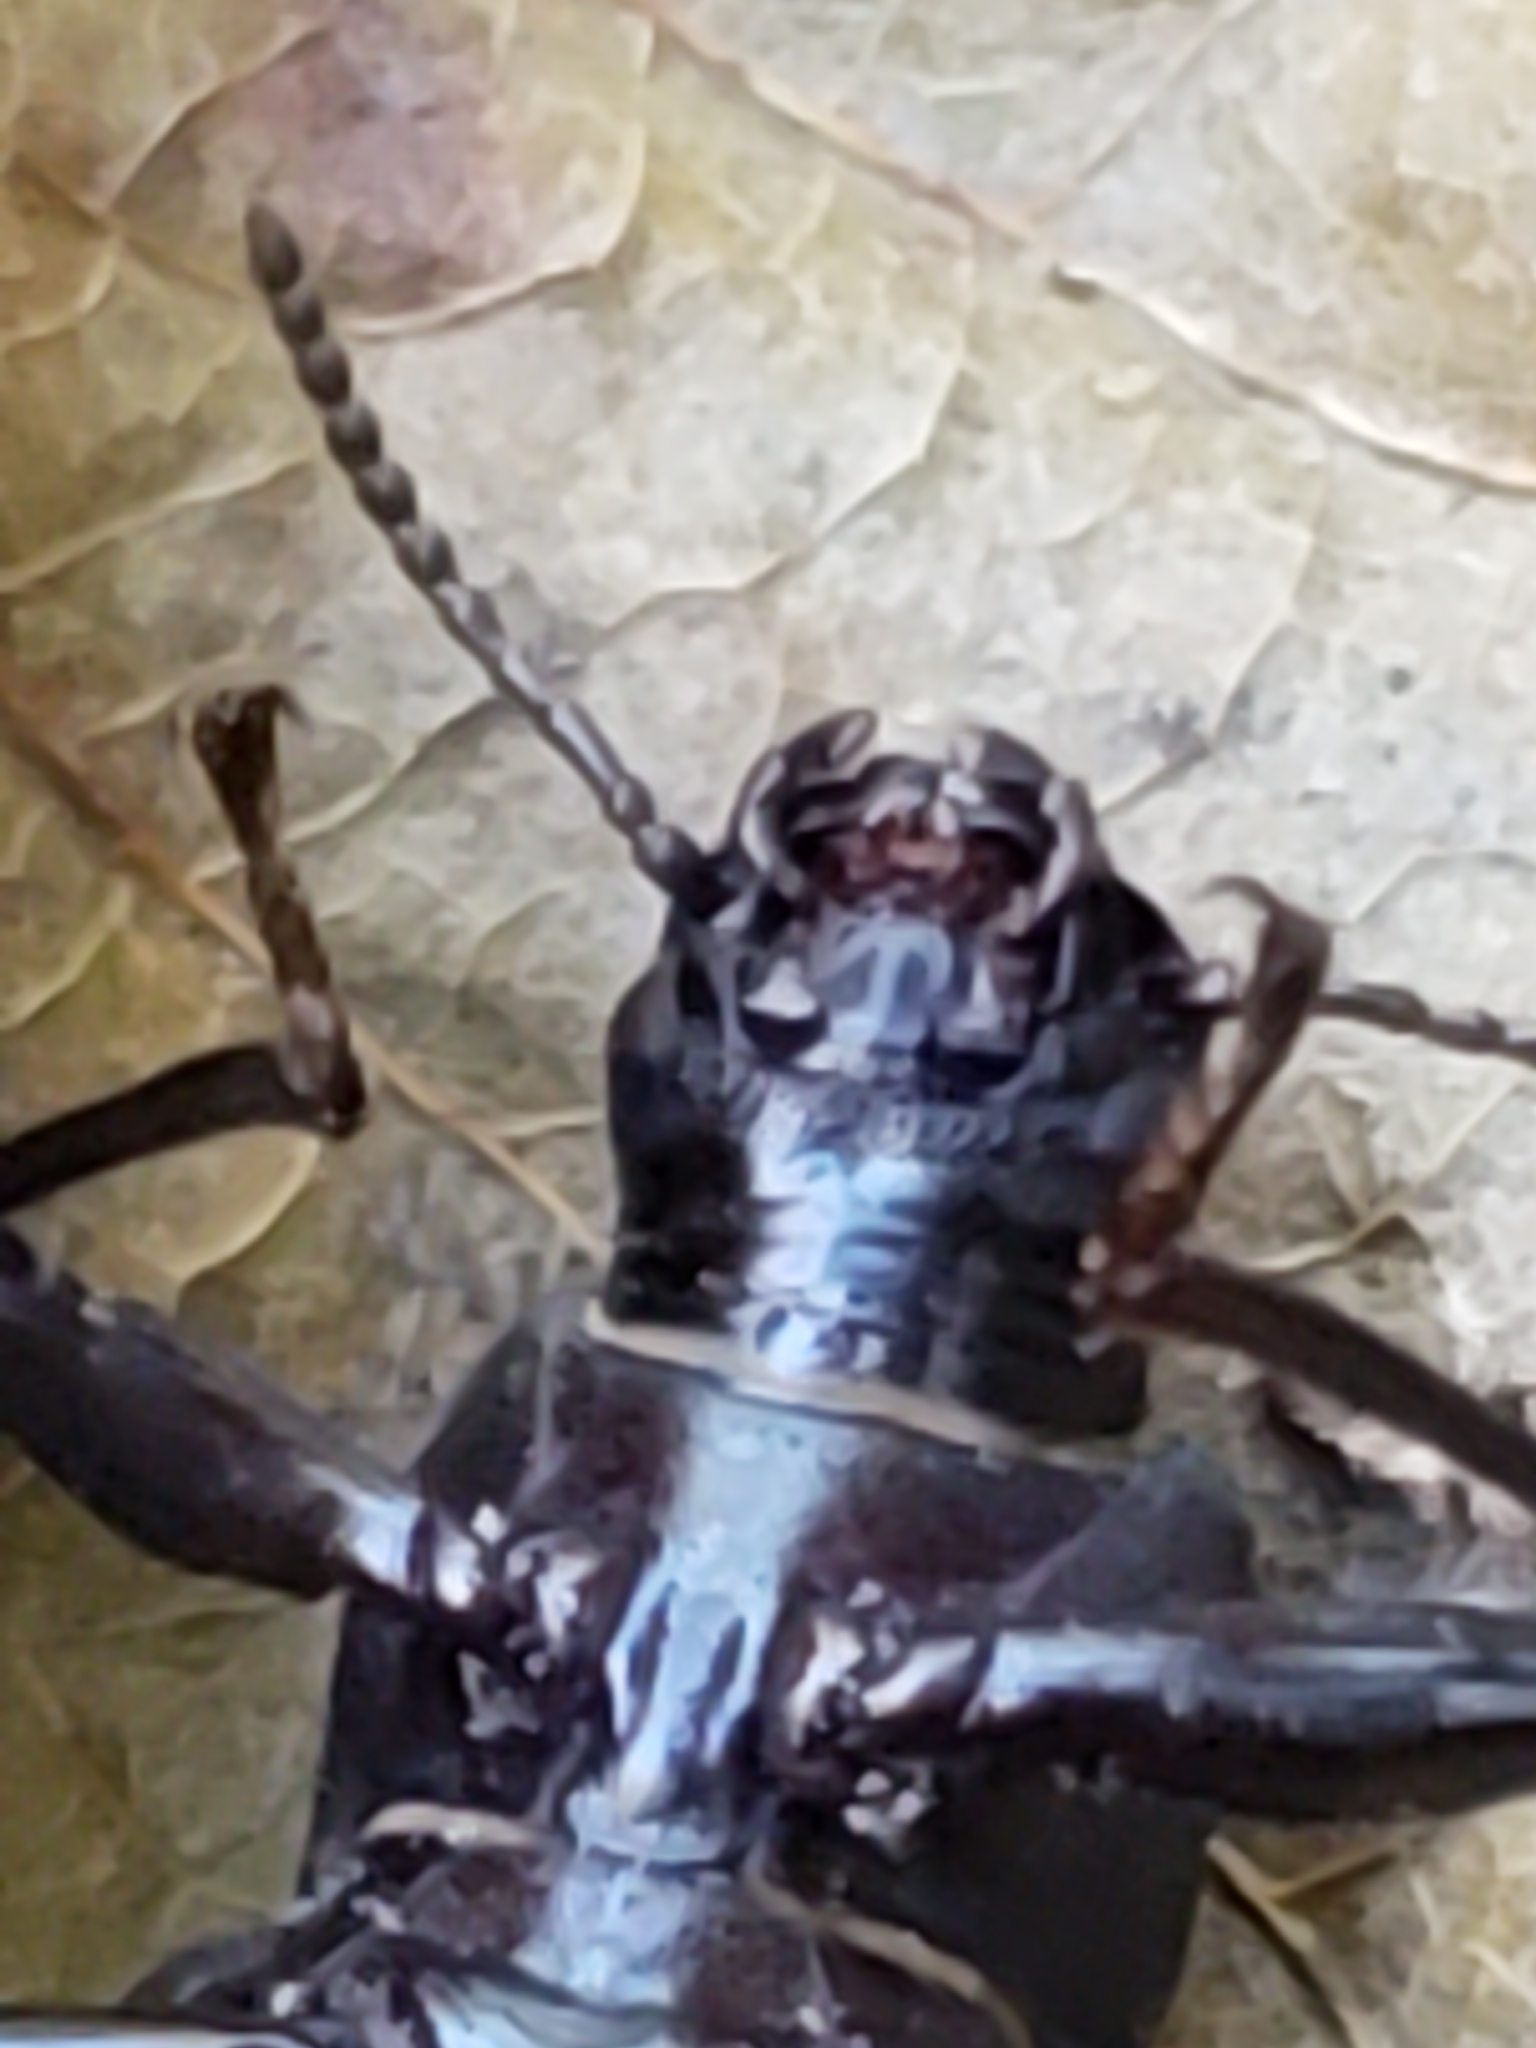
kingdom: Animalia
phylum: Arthropoda
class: Insecta
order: Coleoptera
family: Tenebrionidae
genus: Alobates
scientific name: Alobates pensylvanicus
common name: False mealworm beetle
